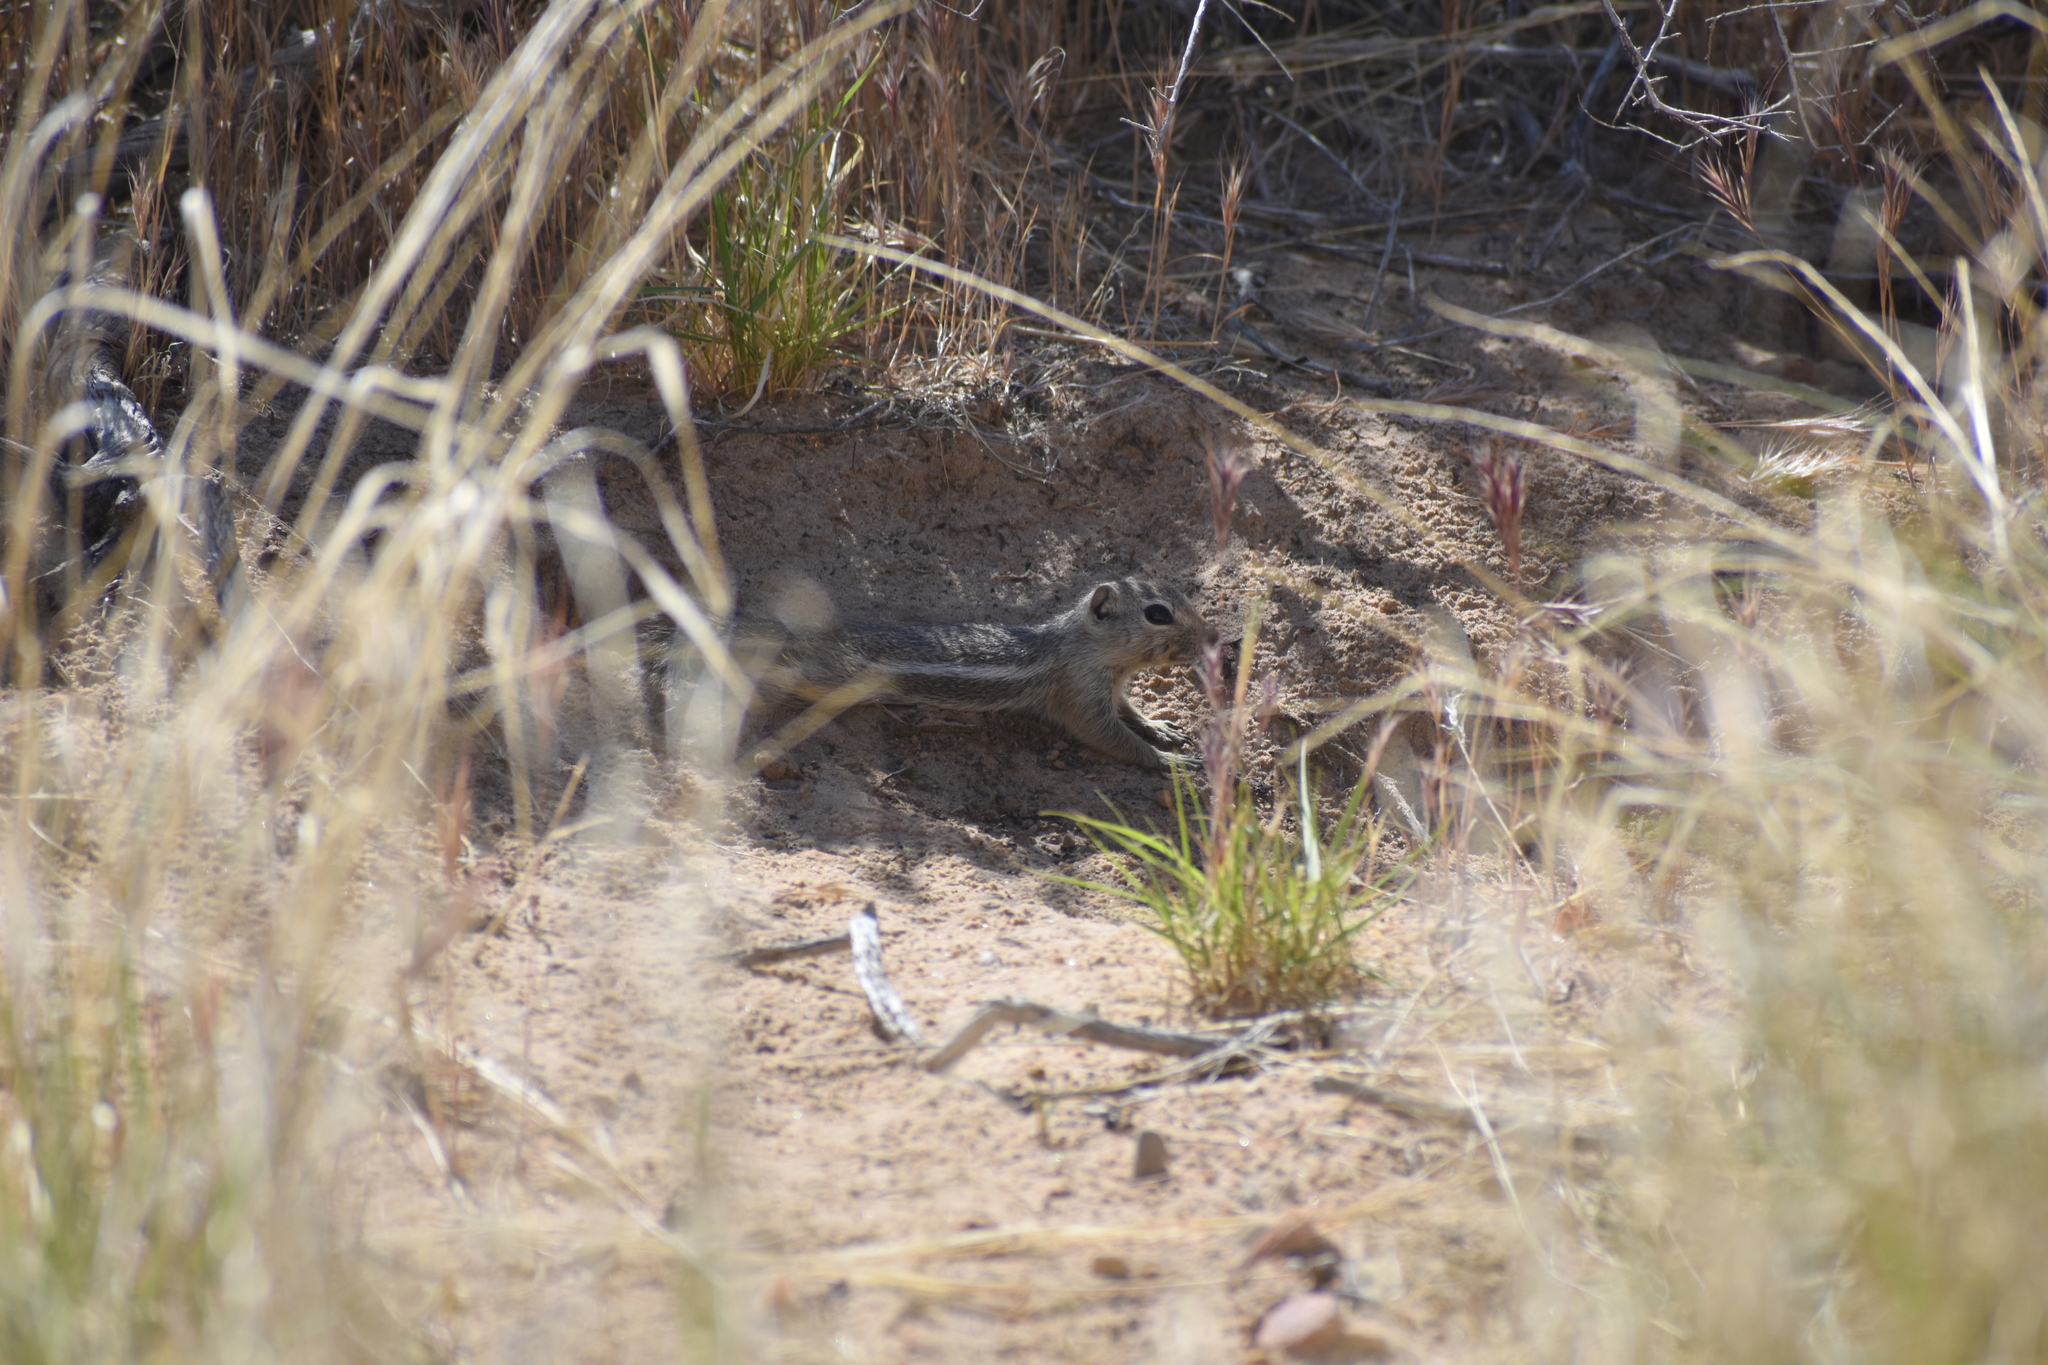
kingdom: Animalia
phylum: Chordata
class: Mammalia
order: Rodentia
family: Sciuridae
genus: Ammospermophilus
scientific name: Ammospermophilus leucurus
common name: White-tailed antelope squirrel
